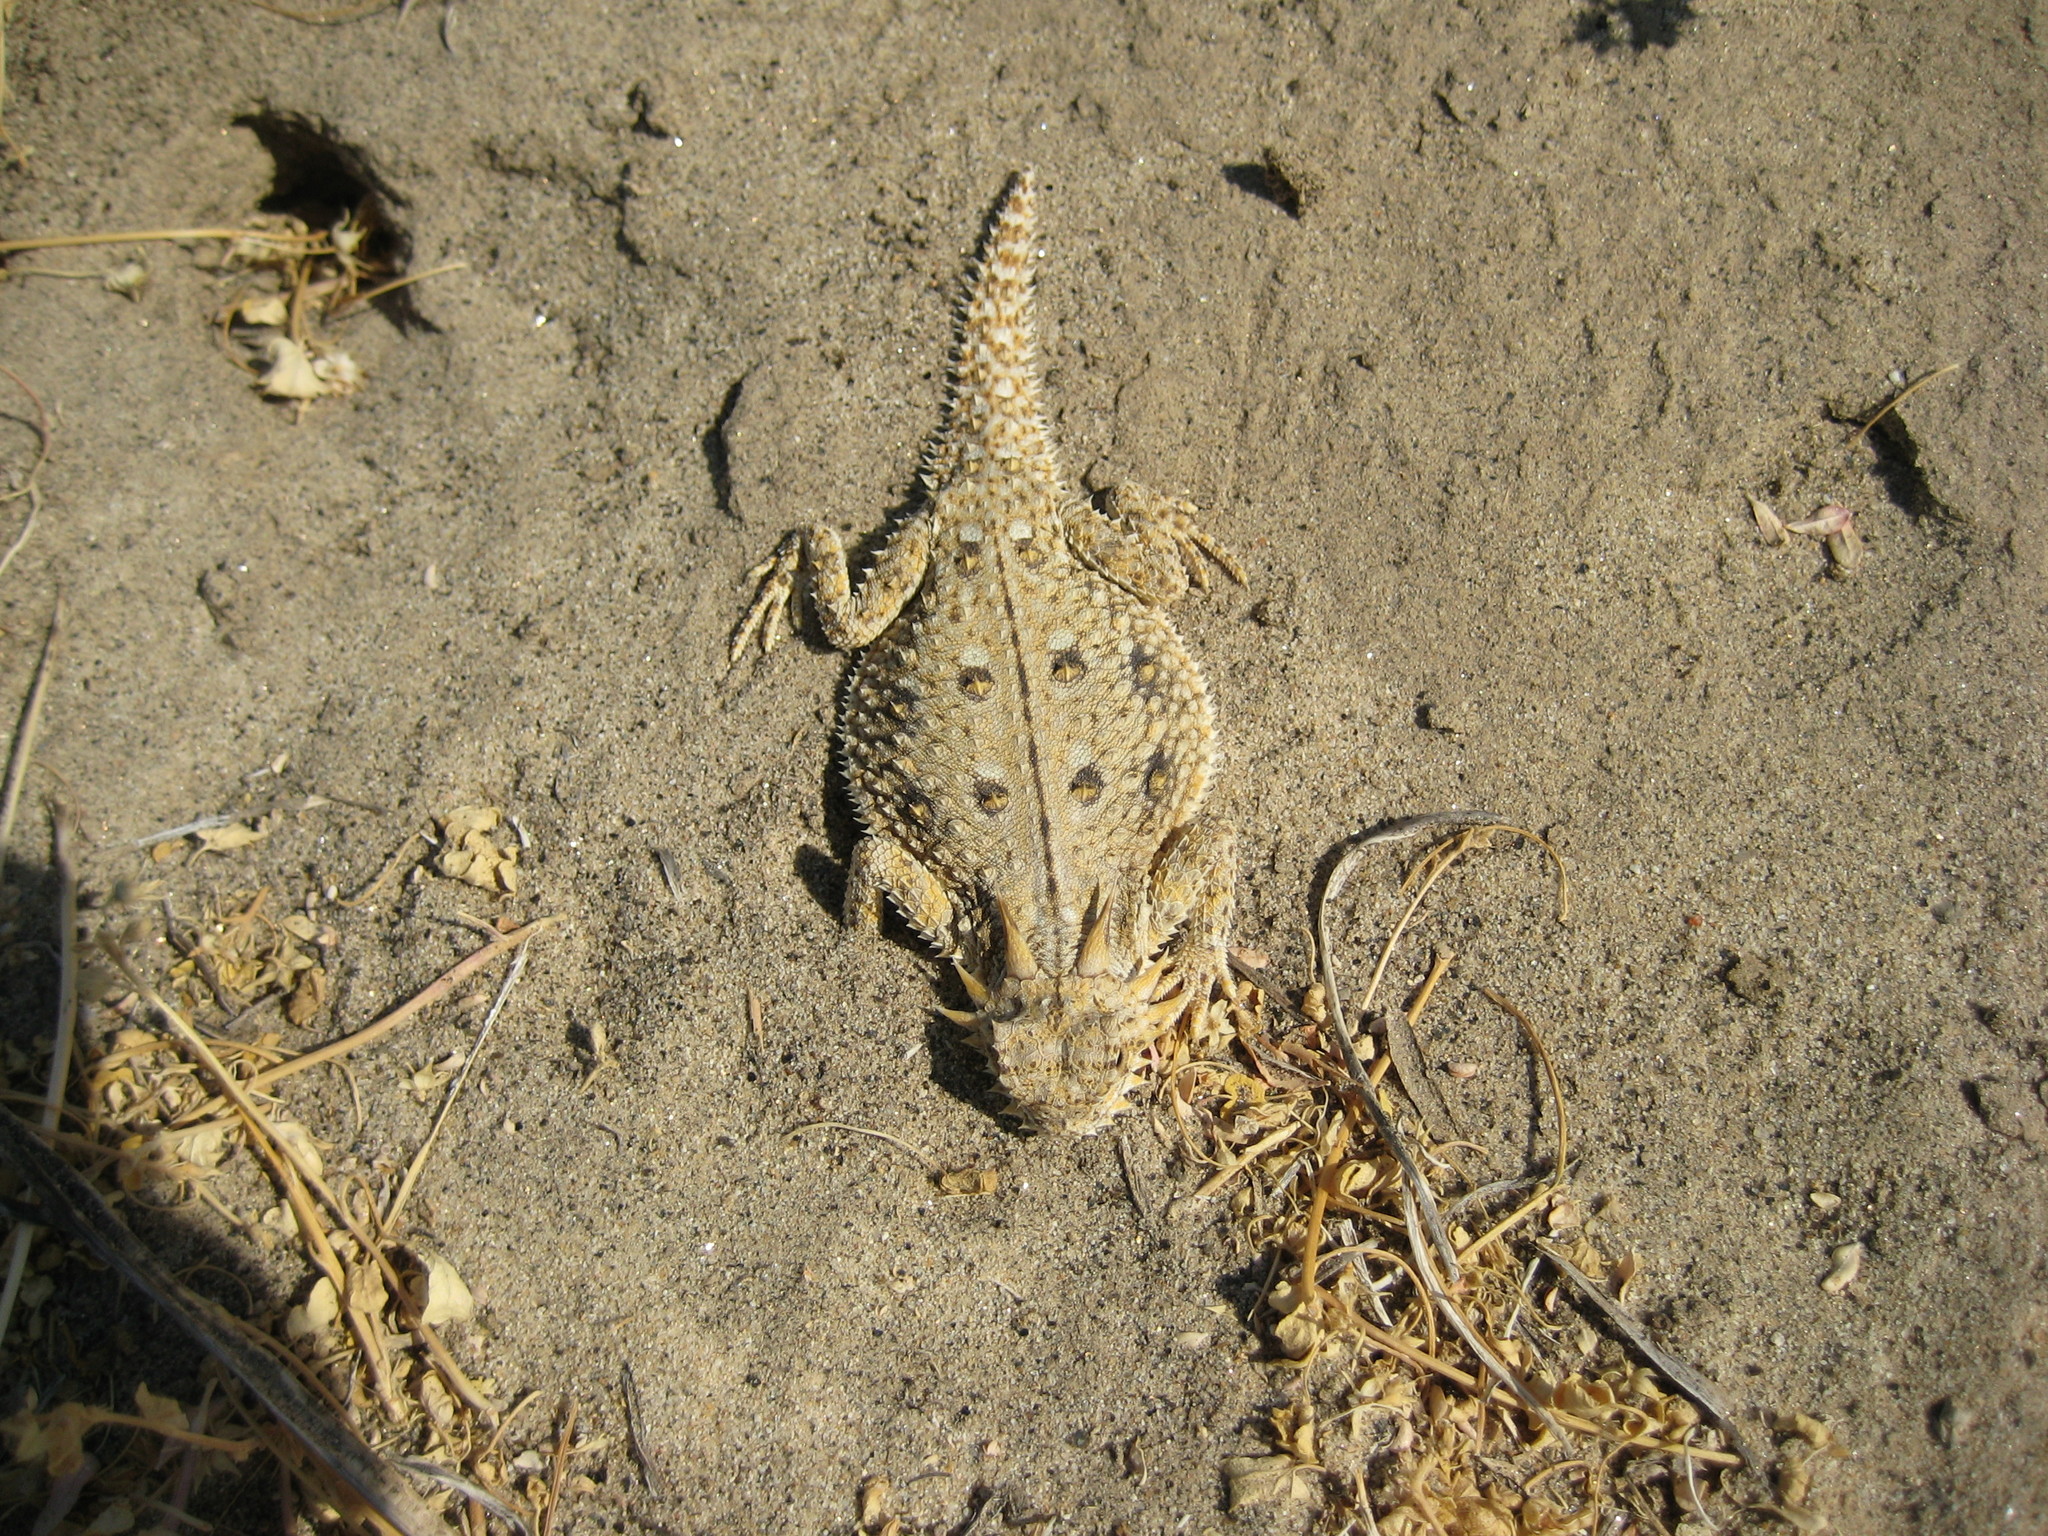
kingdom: Animalia
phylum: Chordata
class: Squamata
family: Phrynosomatidae
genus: Phrynosoma
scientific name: Phrynosoma mcallii
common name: Flat-tailed horned lizard
